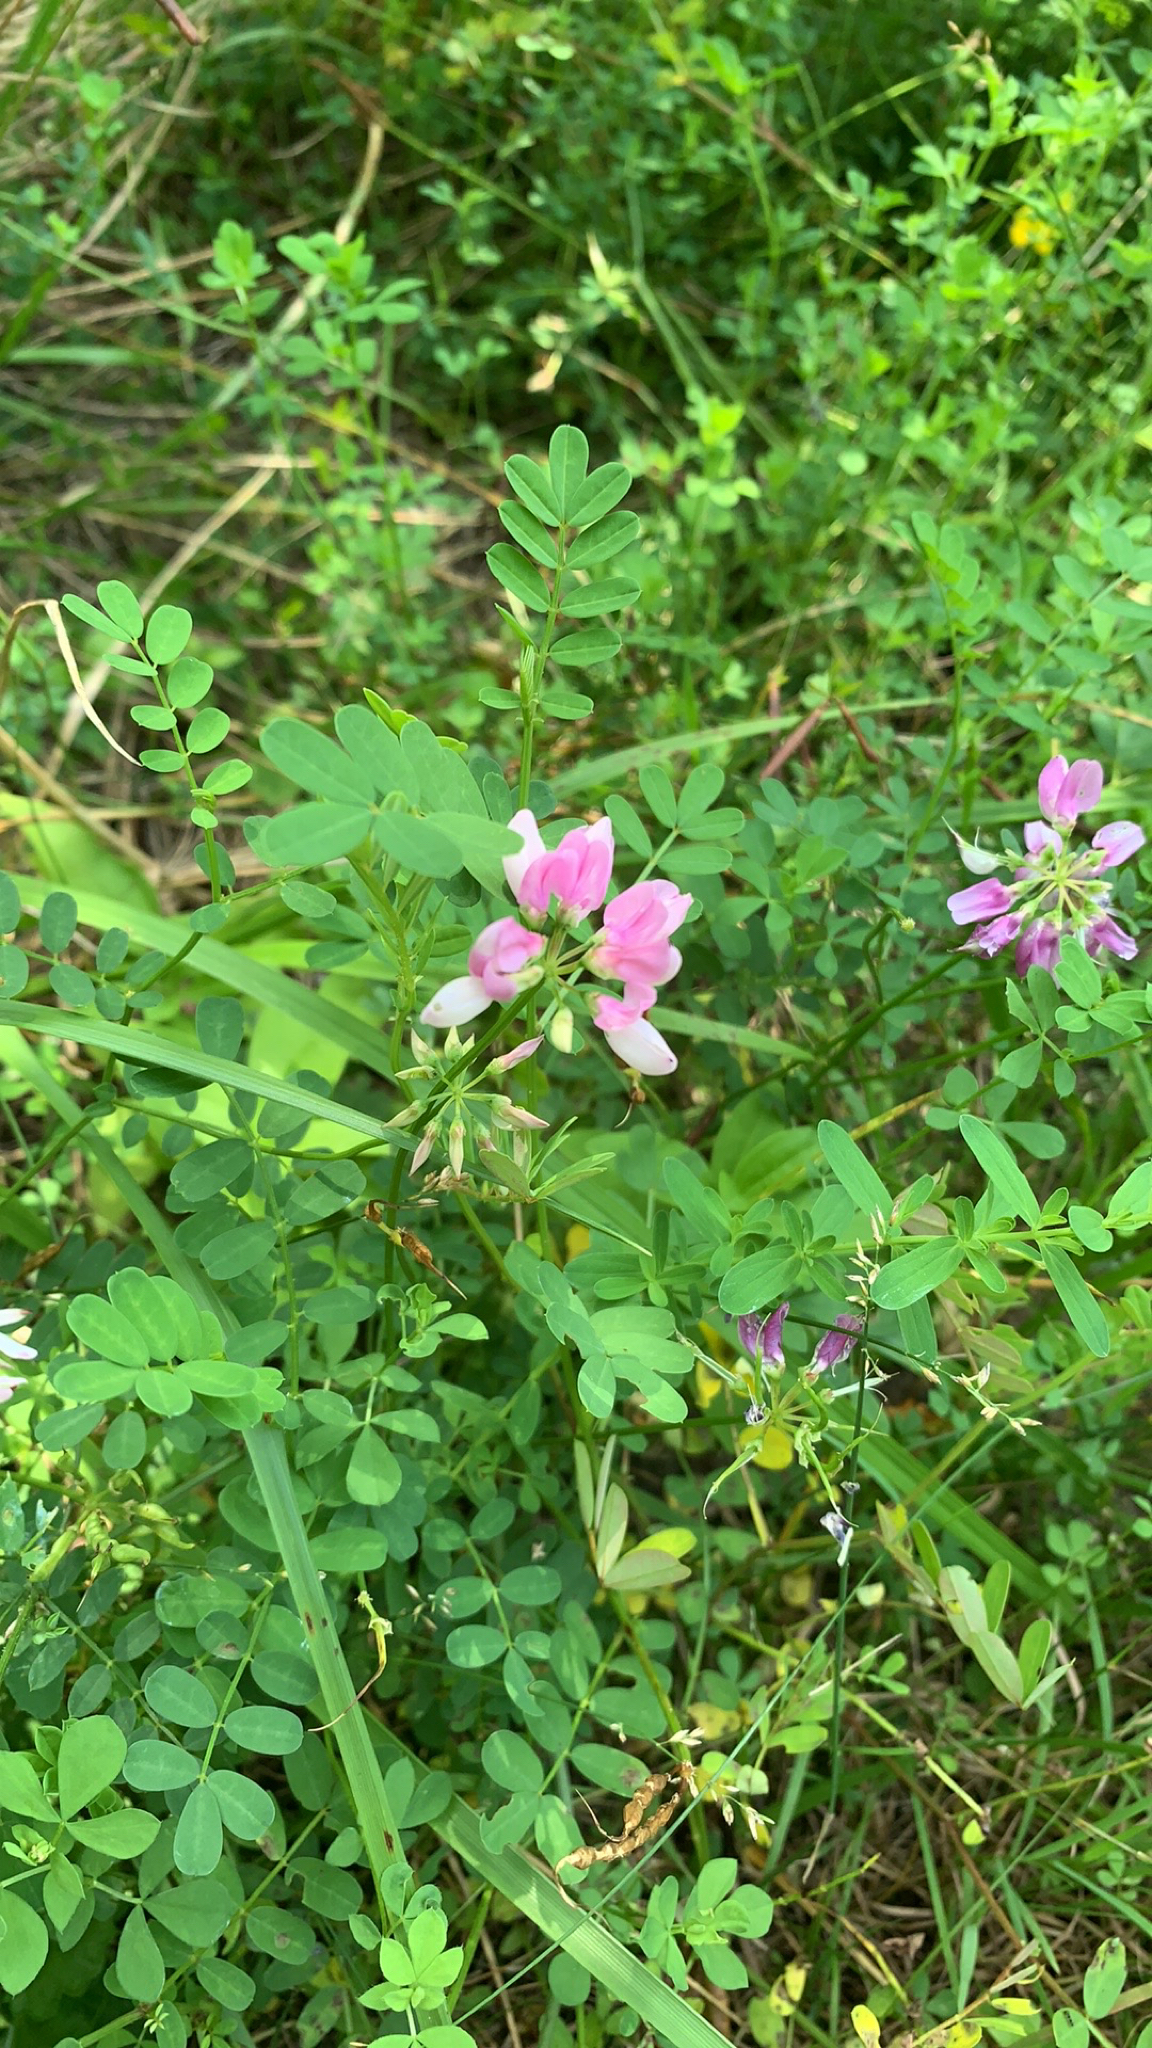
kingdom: Plantae
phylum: Tracheophyta
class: Magnoliopsida
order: Fabales
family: Fabaceae
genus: Coronilla
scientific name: Coronilla varia
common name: Crownvetch
